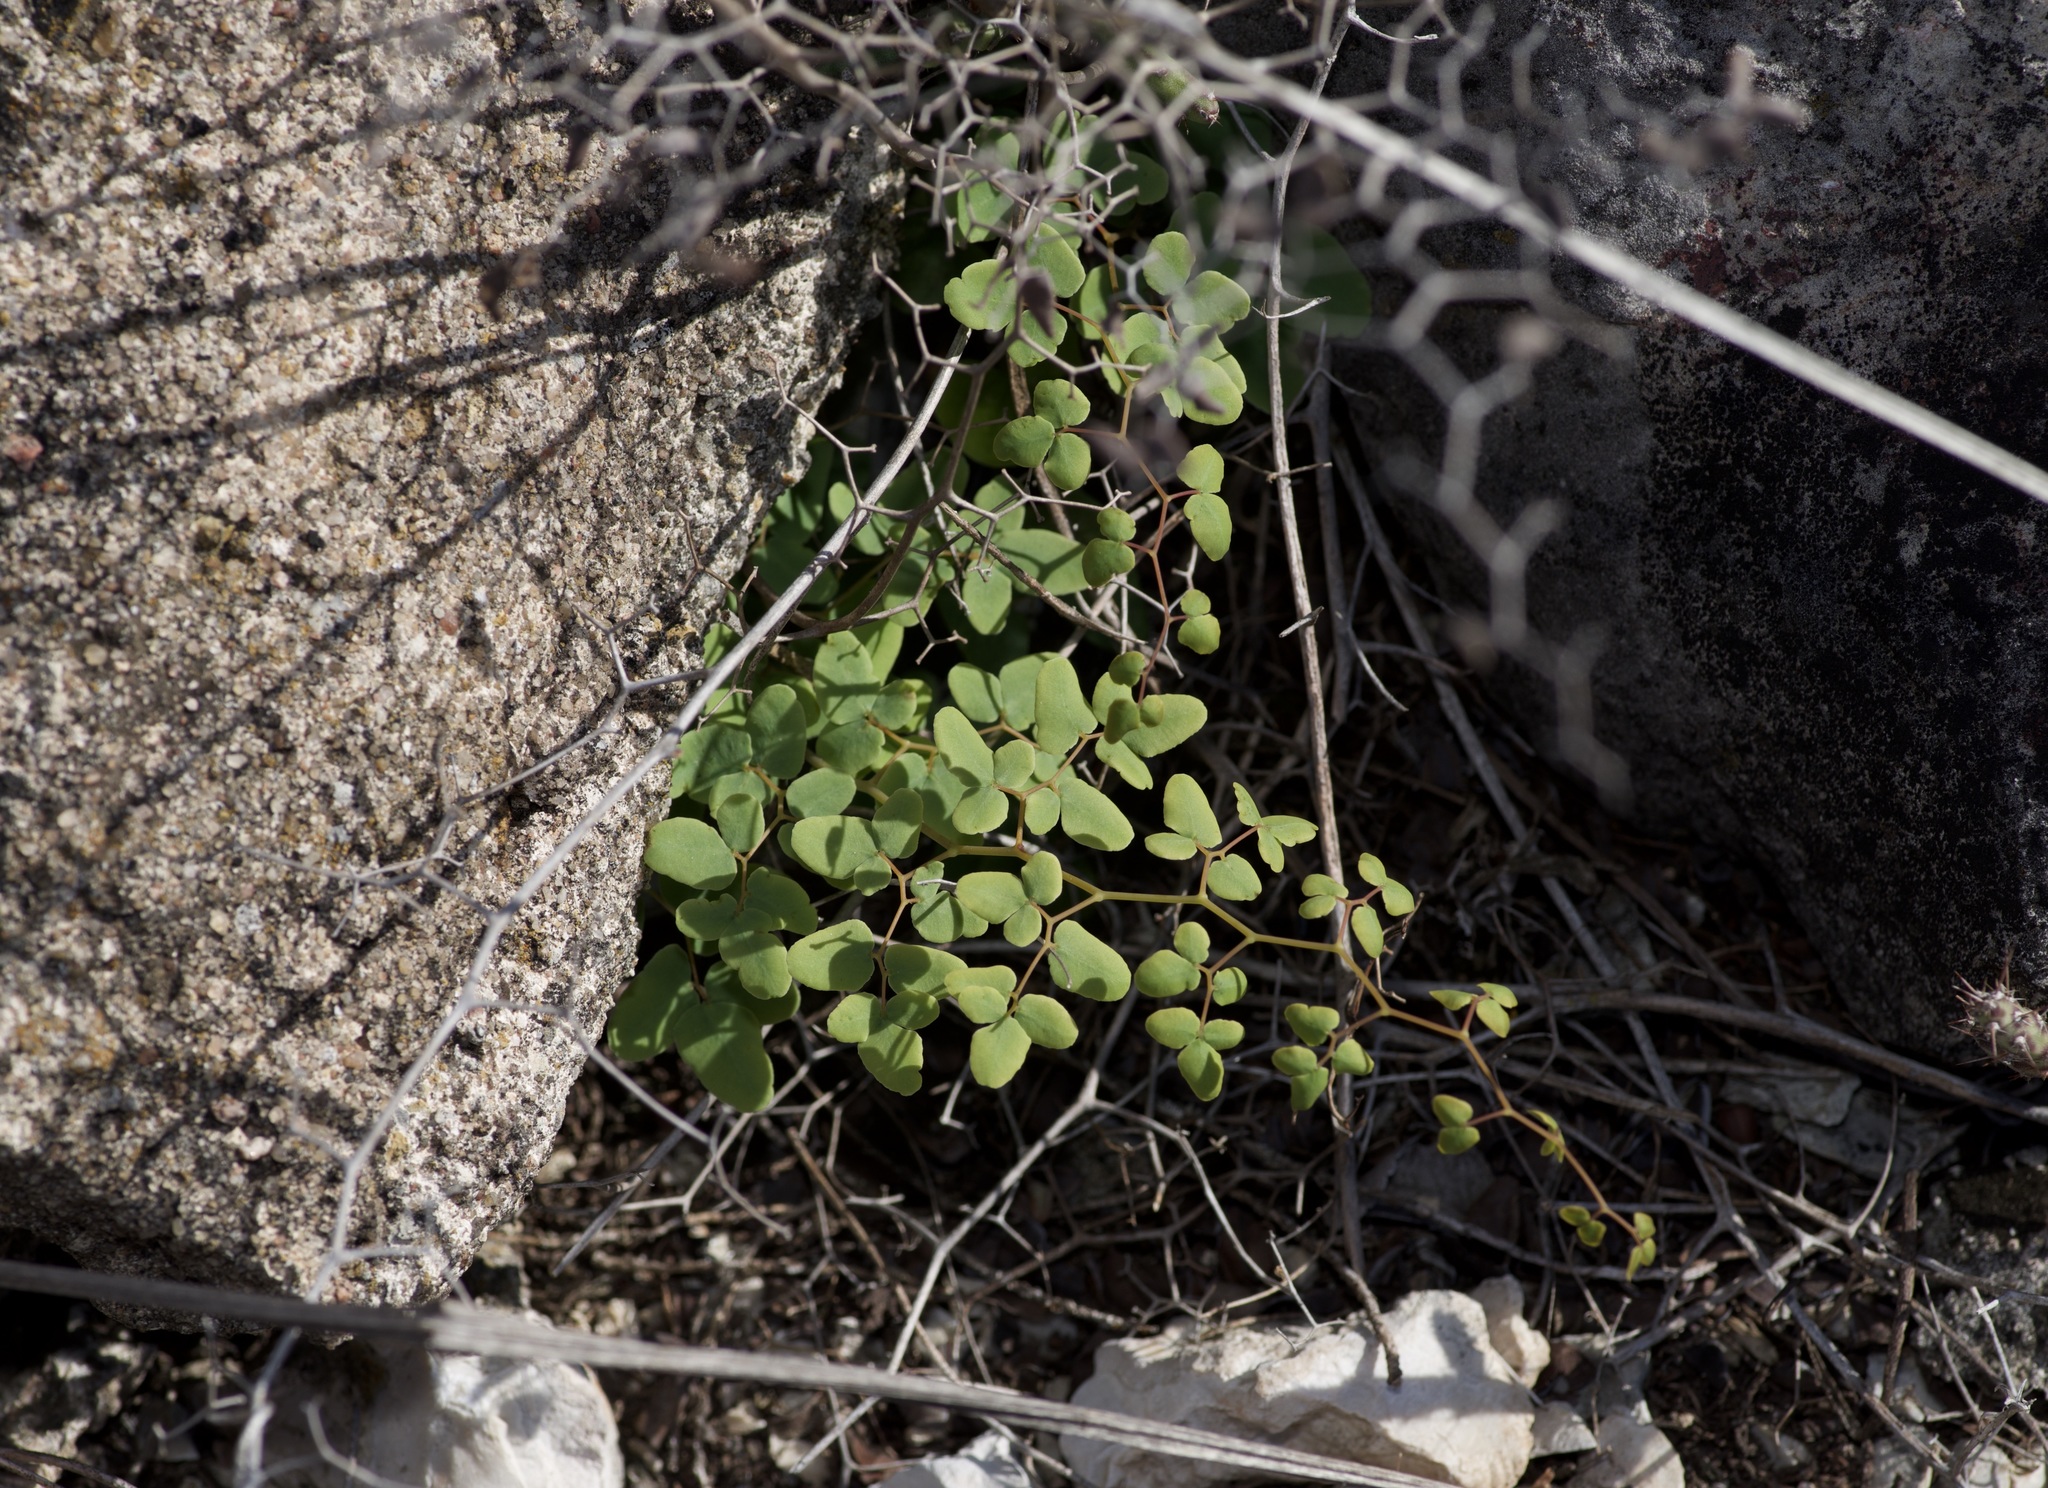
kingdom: Plantae
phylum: Tracheophyta
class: Polypodiopsida
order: Polypodiales
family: Pteridaceae
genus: Pellaea
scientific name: Pellaea ovata
